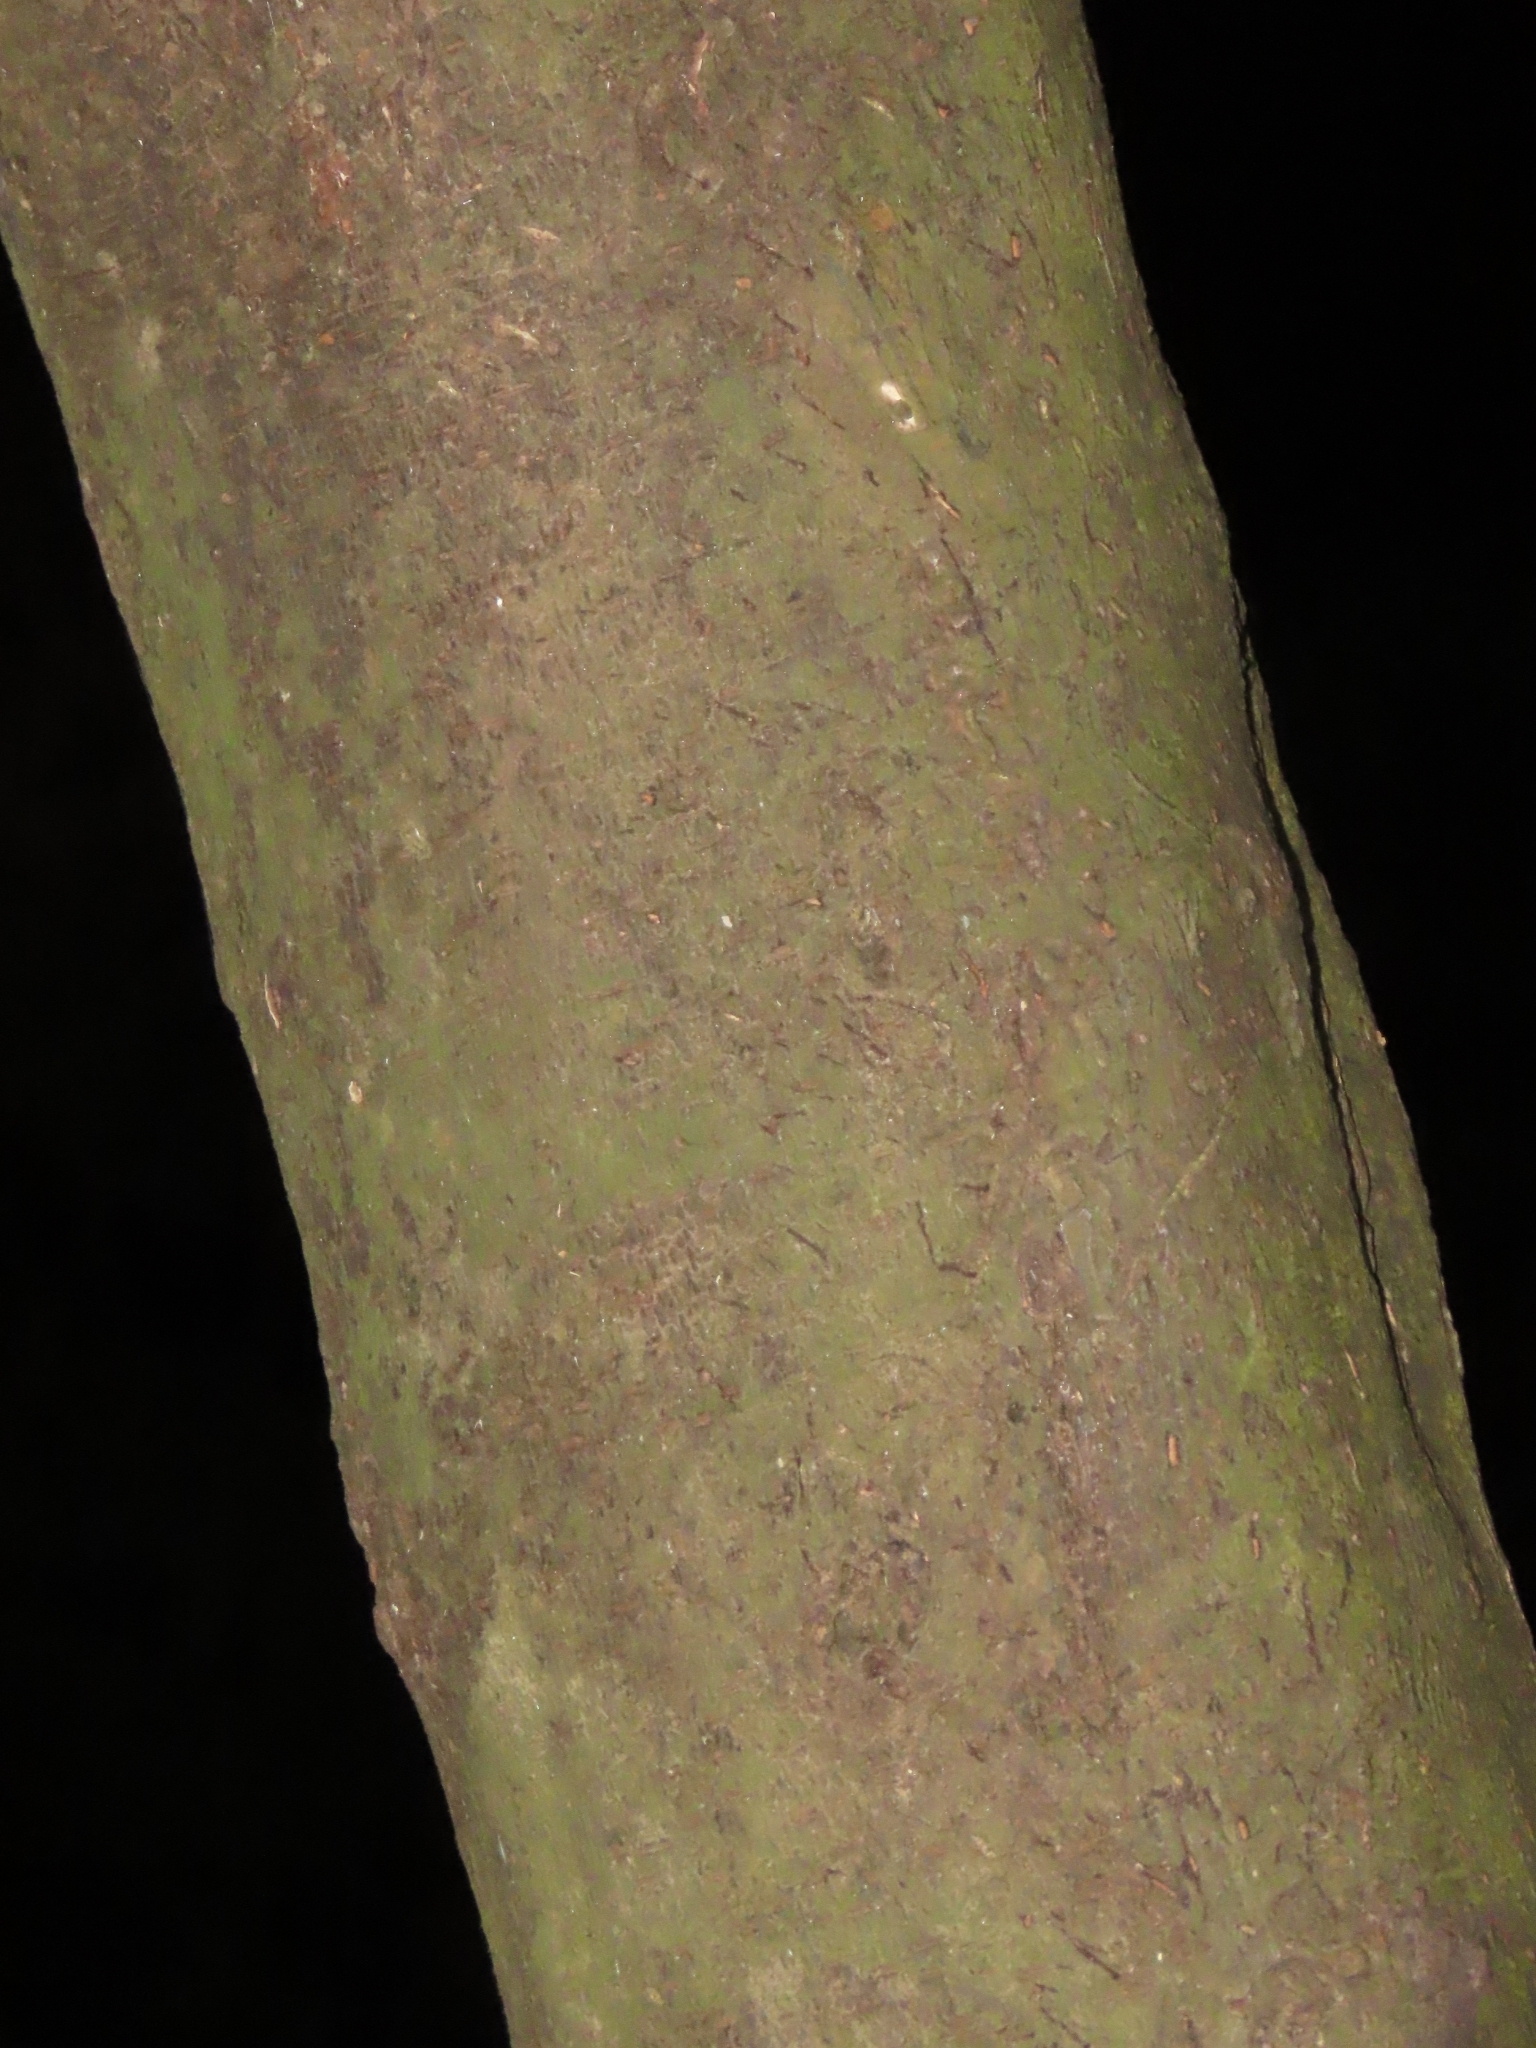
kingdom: Plantae
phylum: Tracheophyta
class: Magnoliopsida
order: Ericales
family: Ebenaceae
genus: Diospyros
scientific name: Diospyros eriantha
